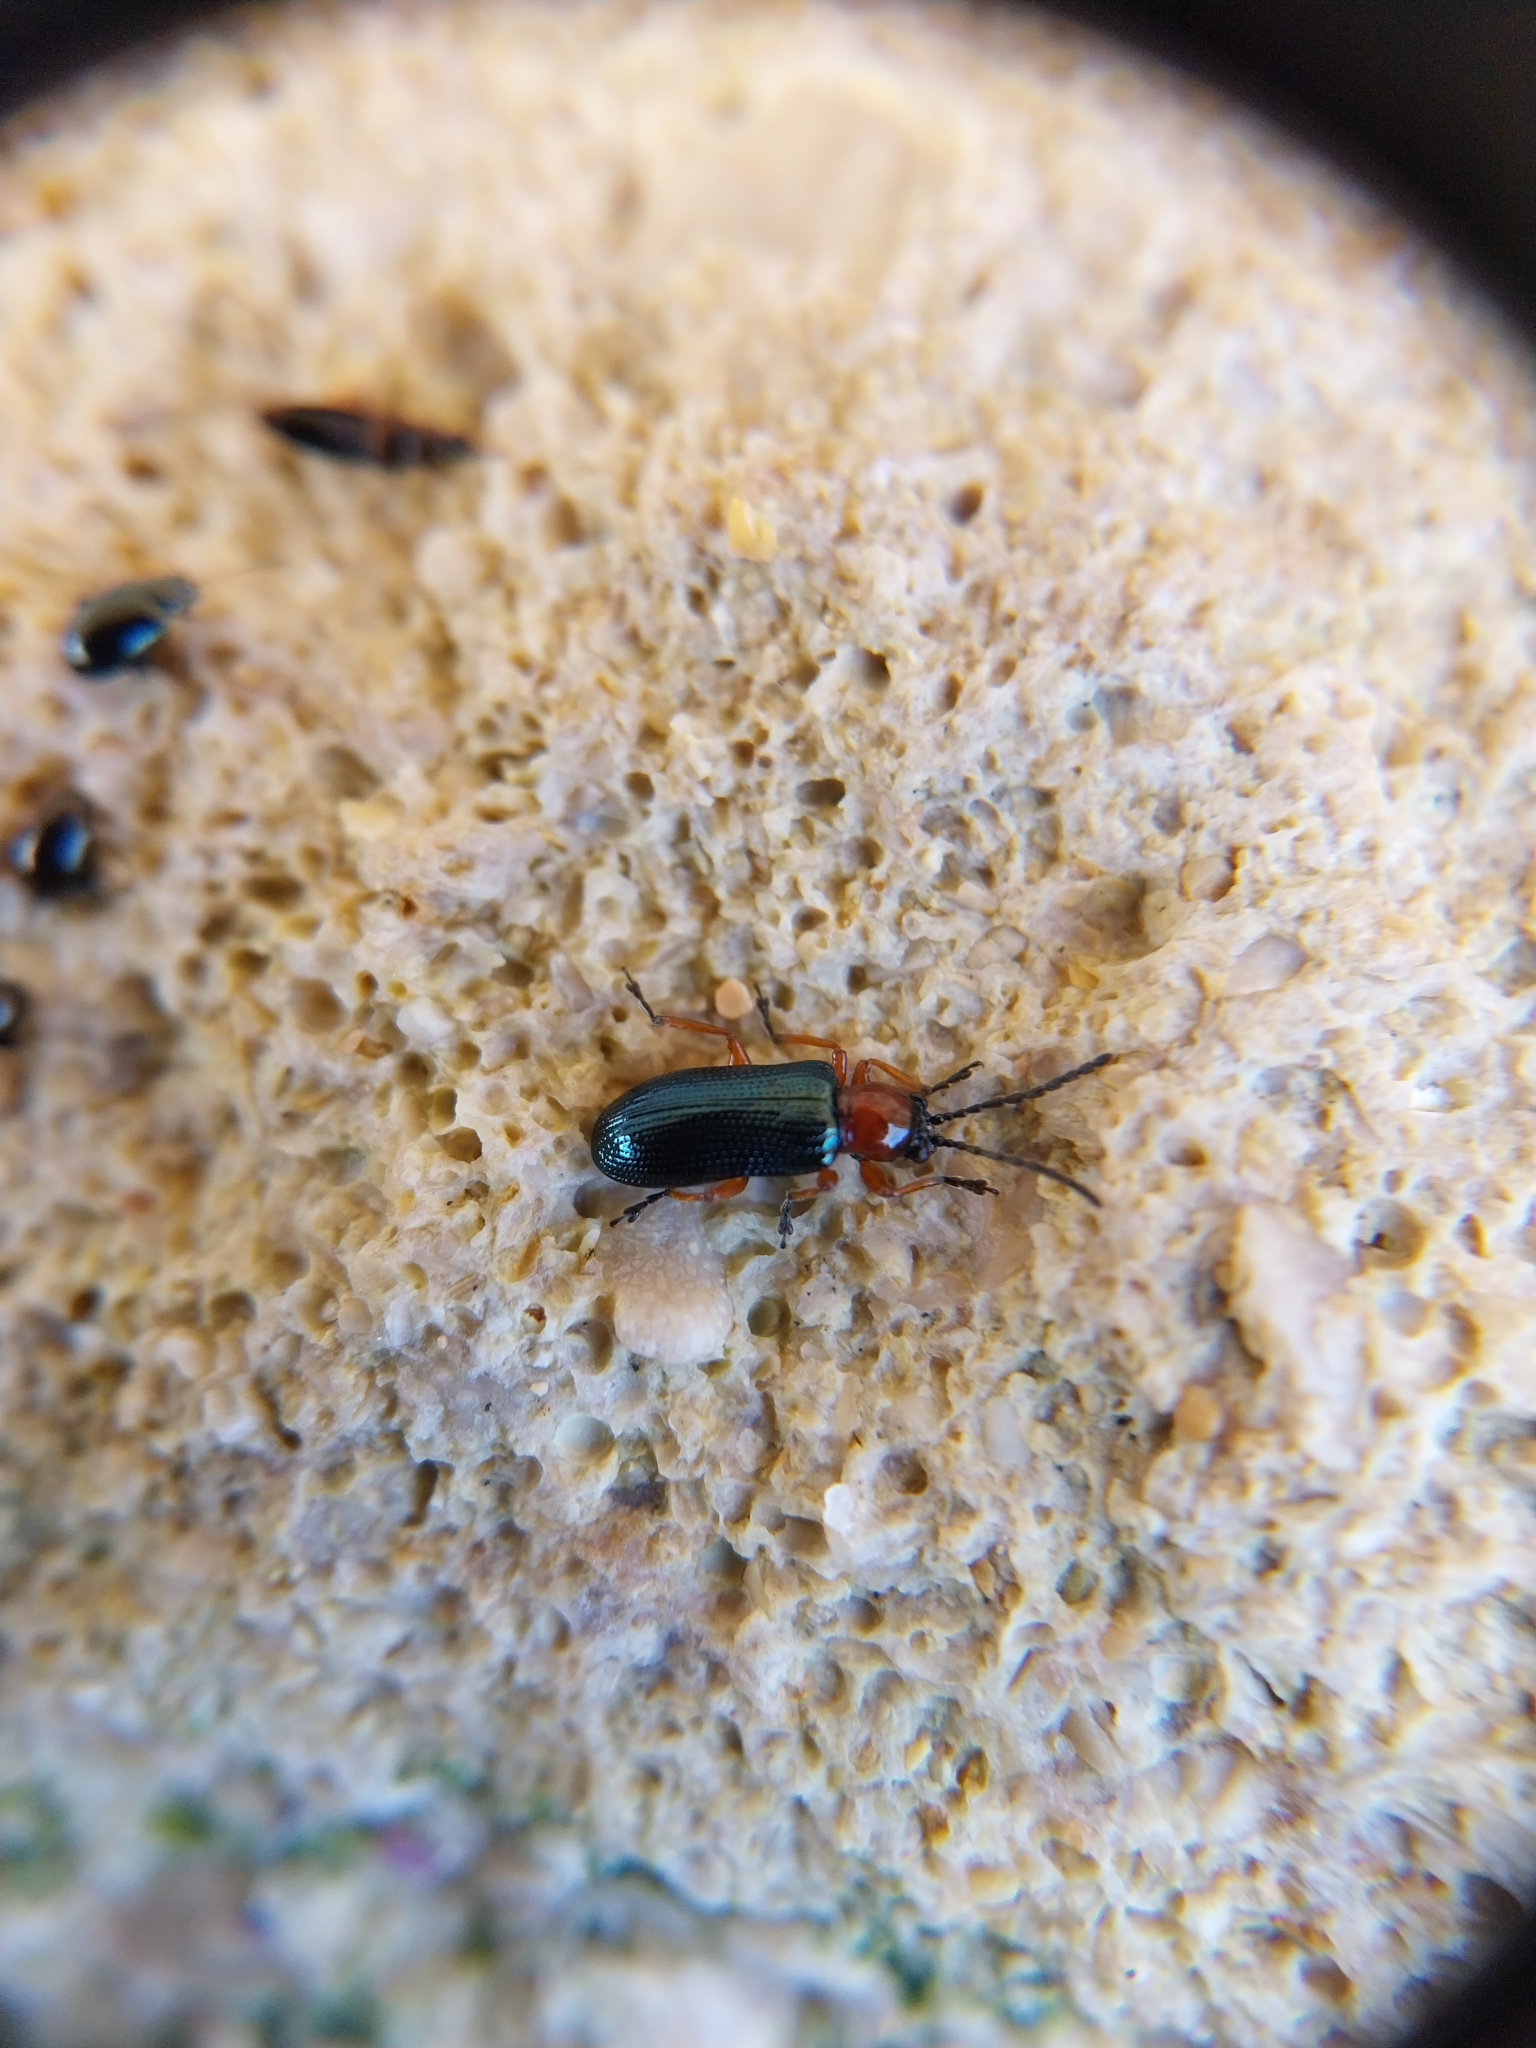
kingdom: Animalia
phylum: Arthropoda
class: Insecta
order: Coleoptera
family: Chrysomelidae
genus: Oulema
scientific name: Oulema
